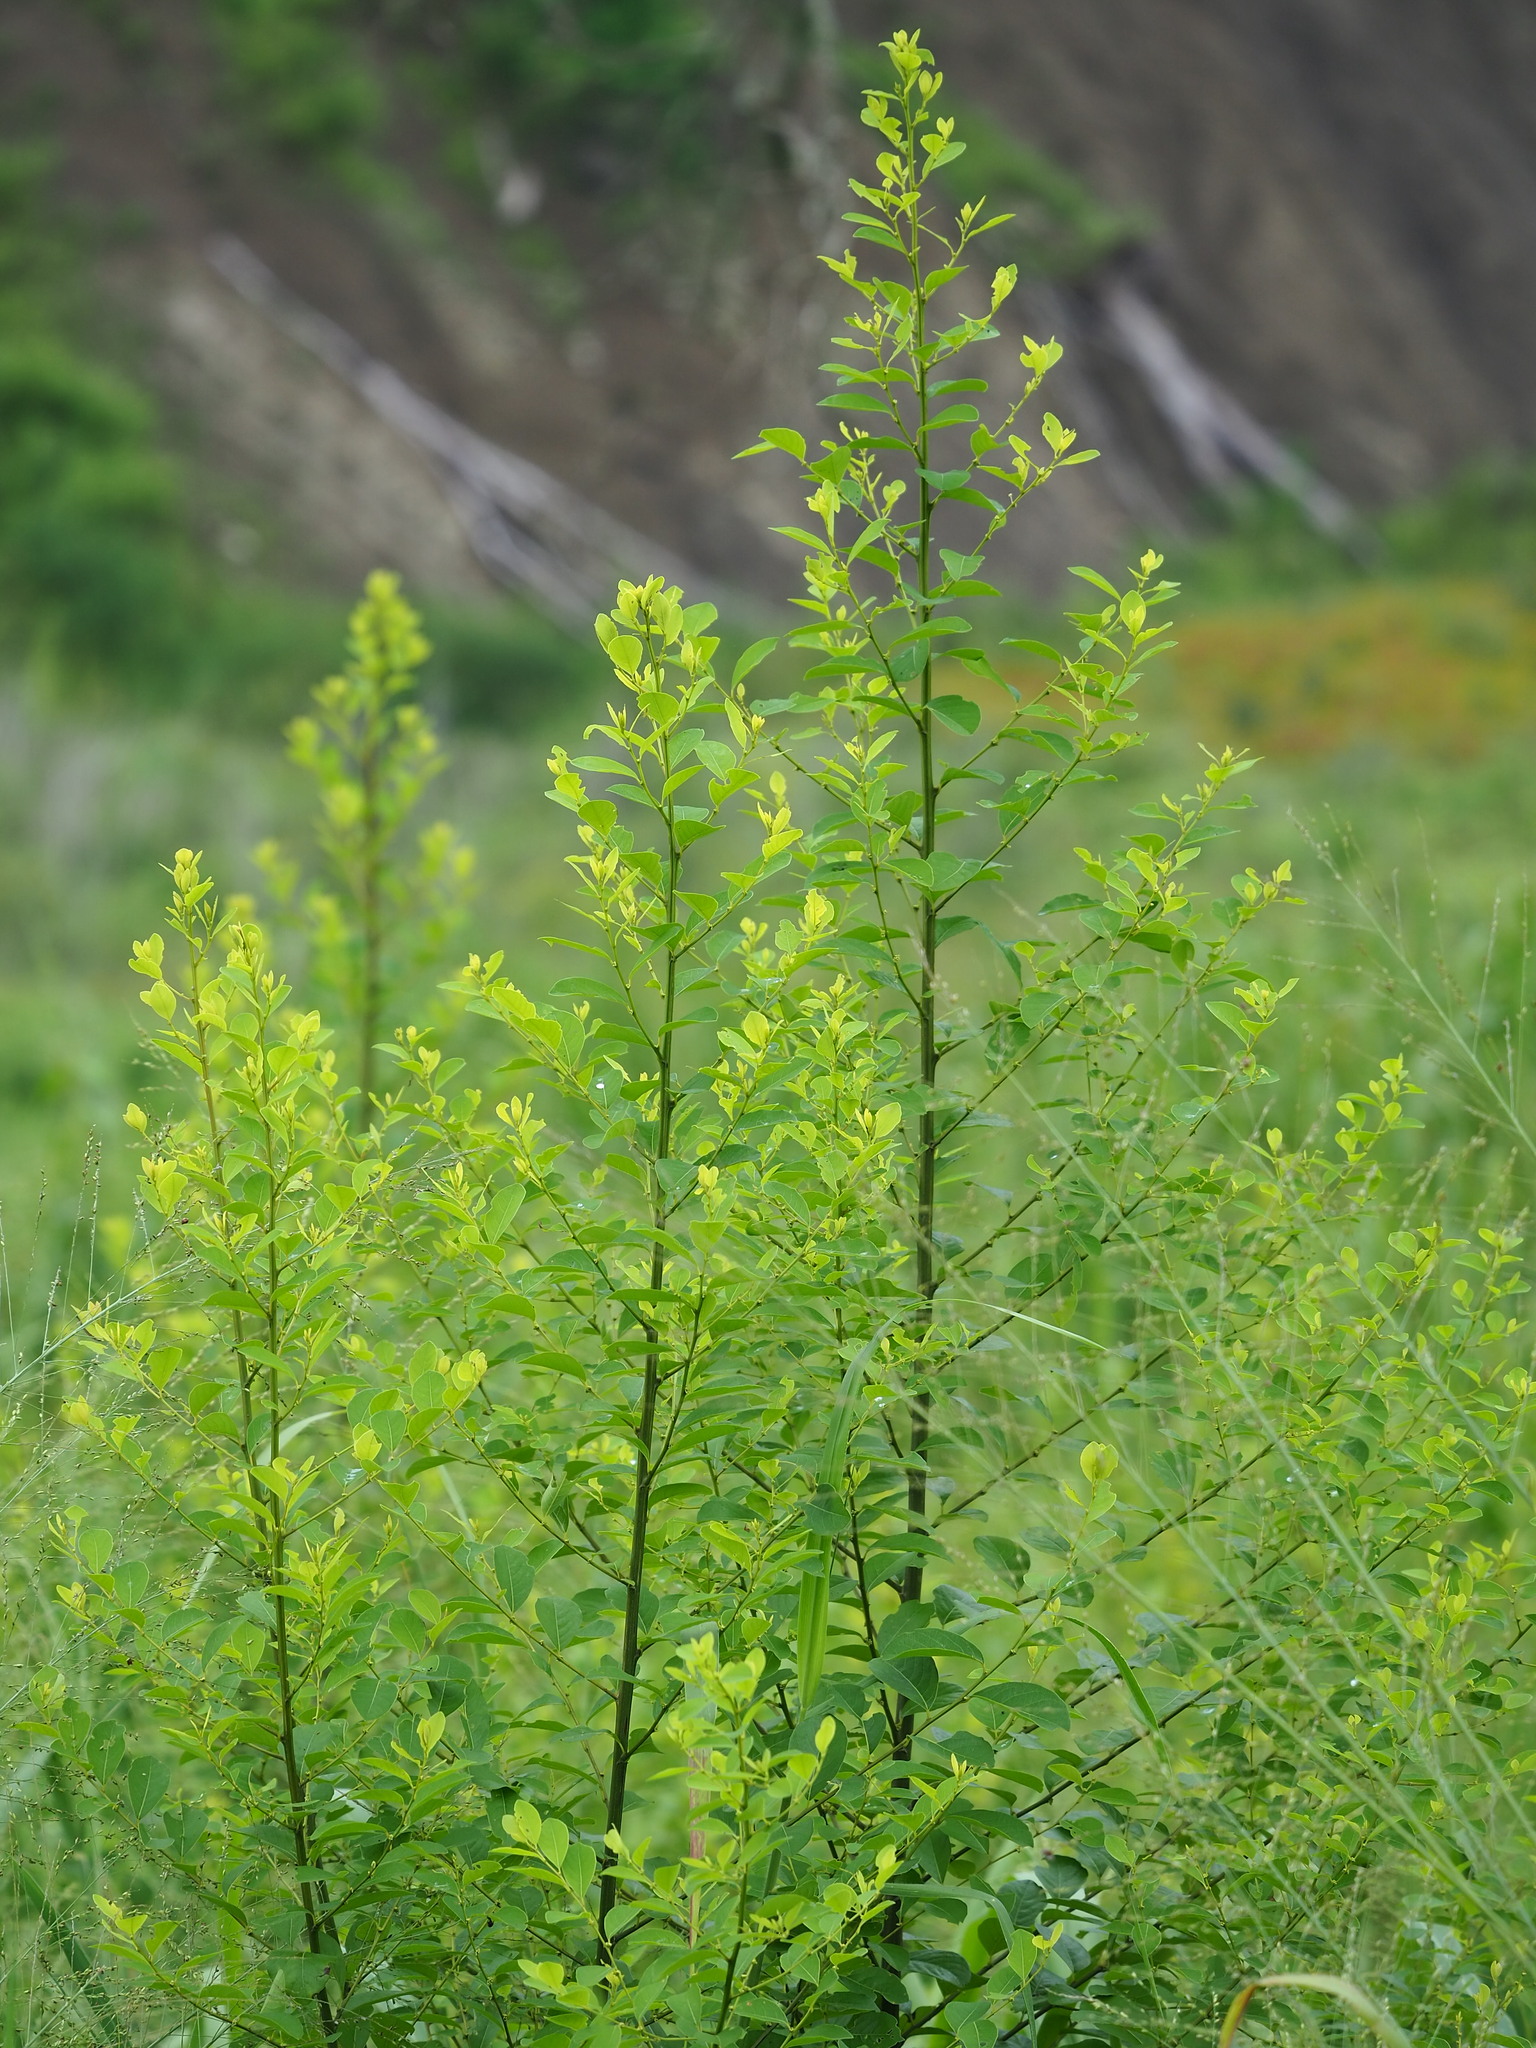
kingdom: Plantae
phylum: Tracheophyta
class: Magnoliopsida
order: Malpighiales
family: Phyllanthaceae
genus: Flueggea
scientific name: Flueggea virosa
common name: Common bushweed
